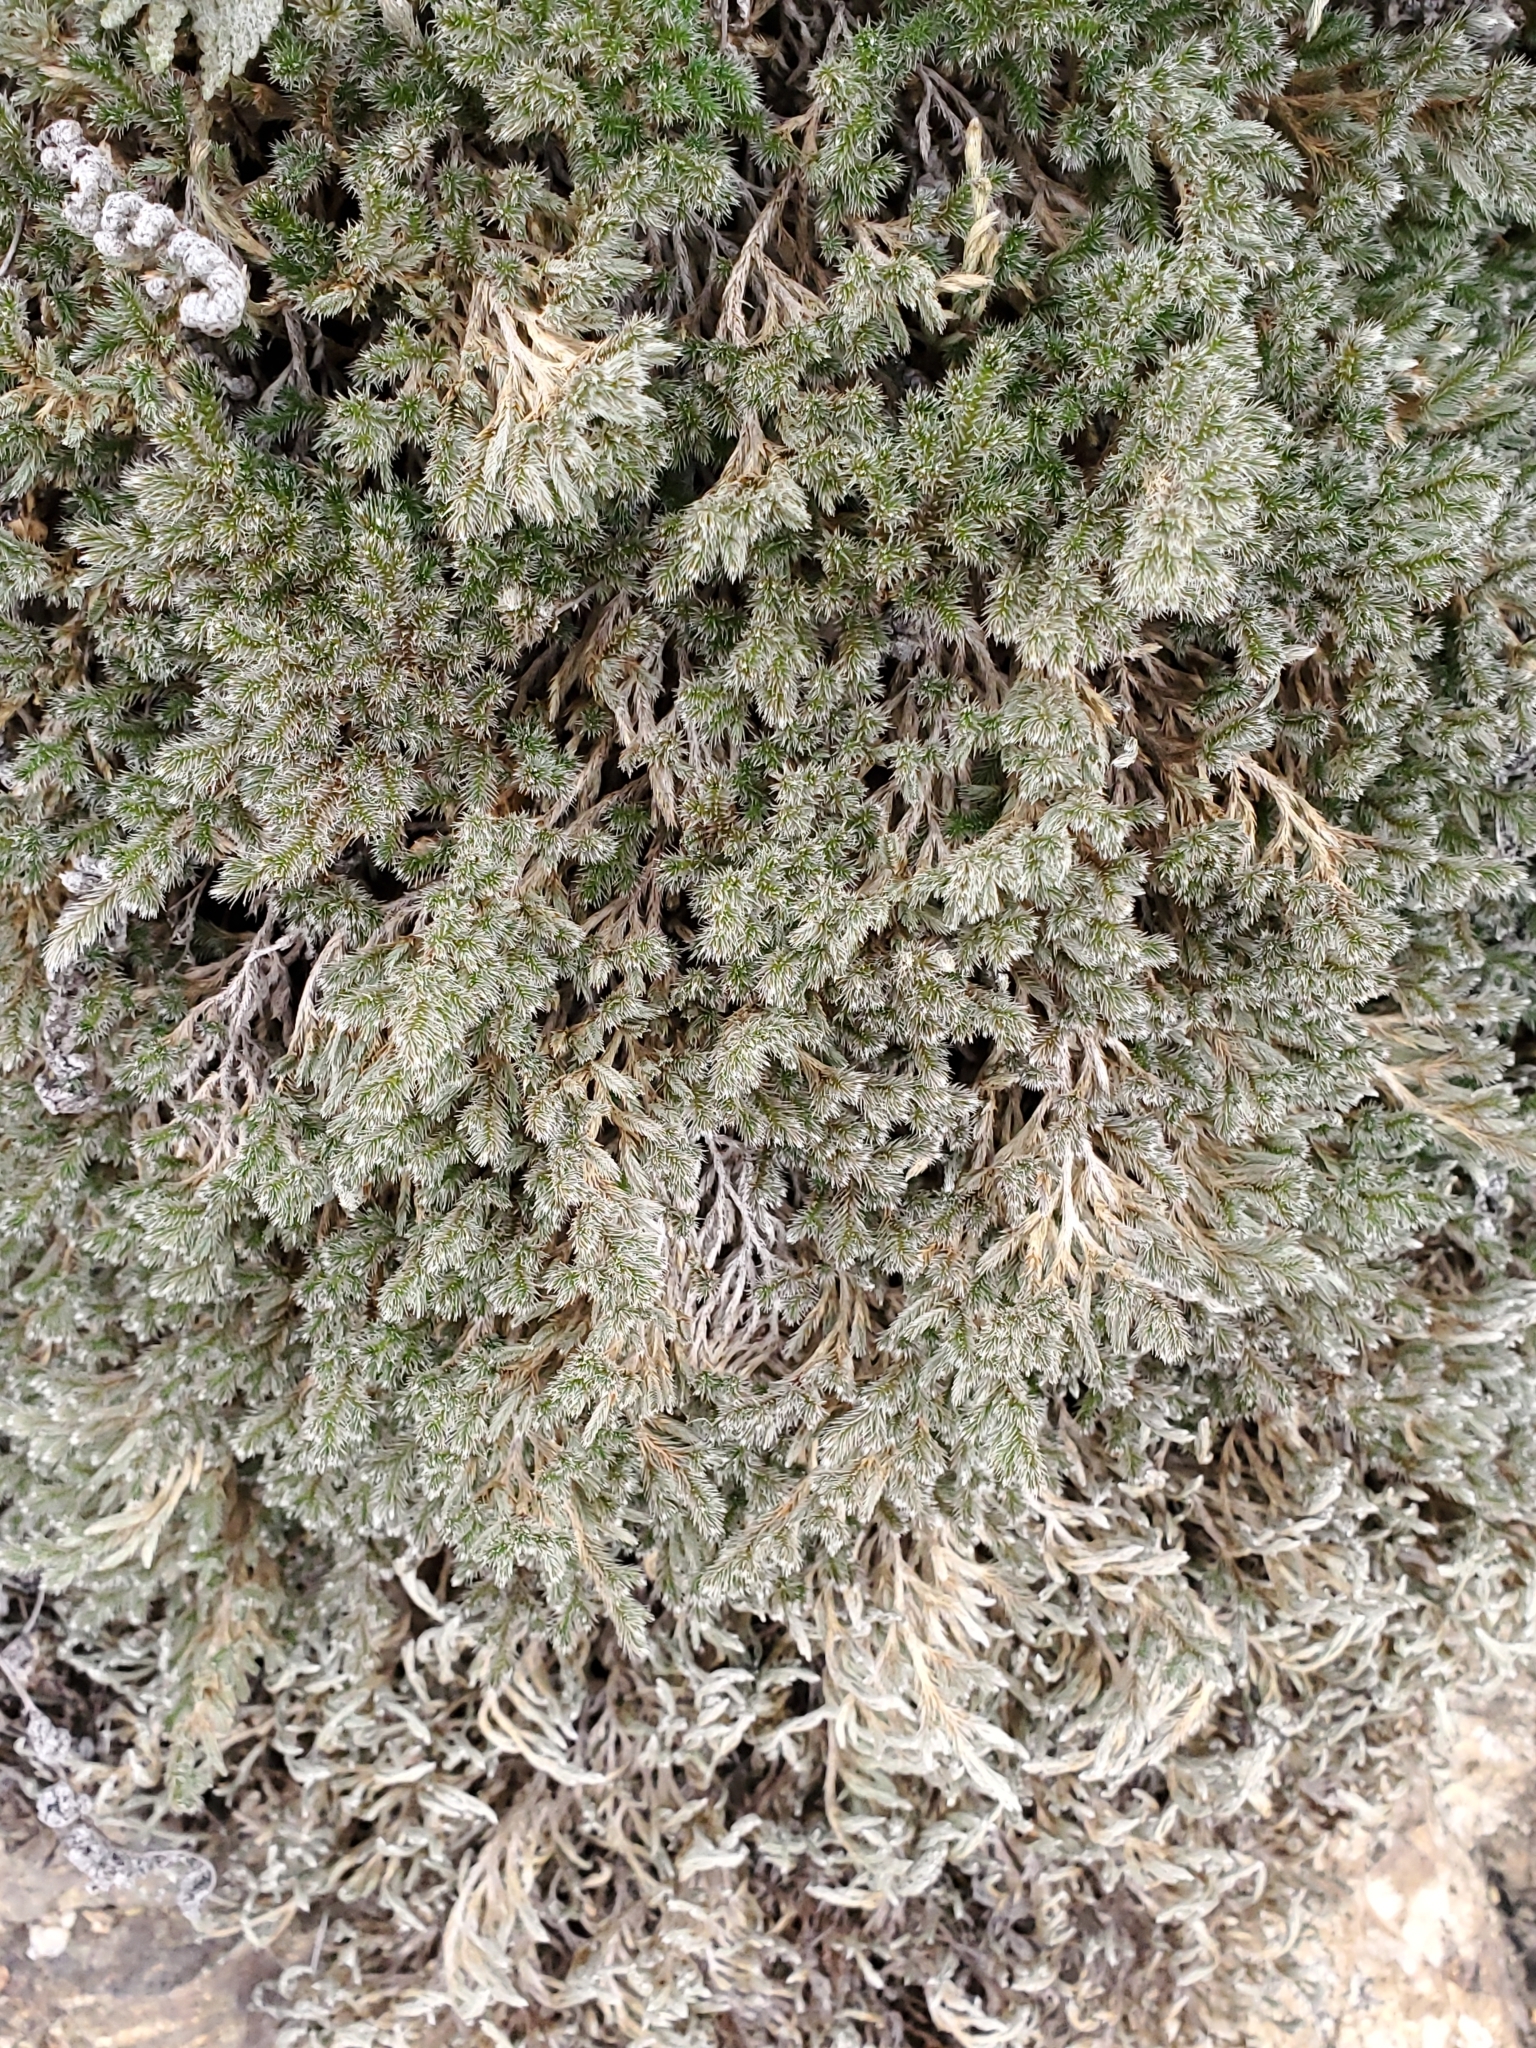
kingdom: Plantae
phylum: Tracheophyta
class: Lycopodiopsida
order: Selaginellales
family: Selaginellaceae
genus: Selaginella
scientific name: Selaginella rupincola
